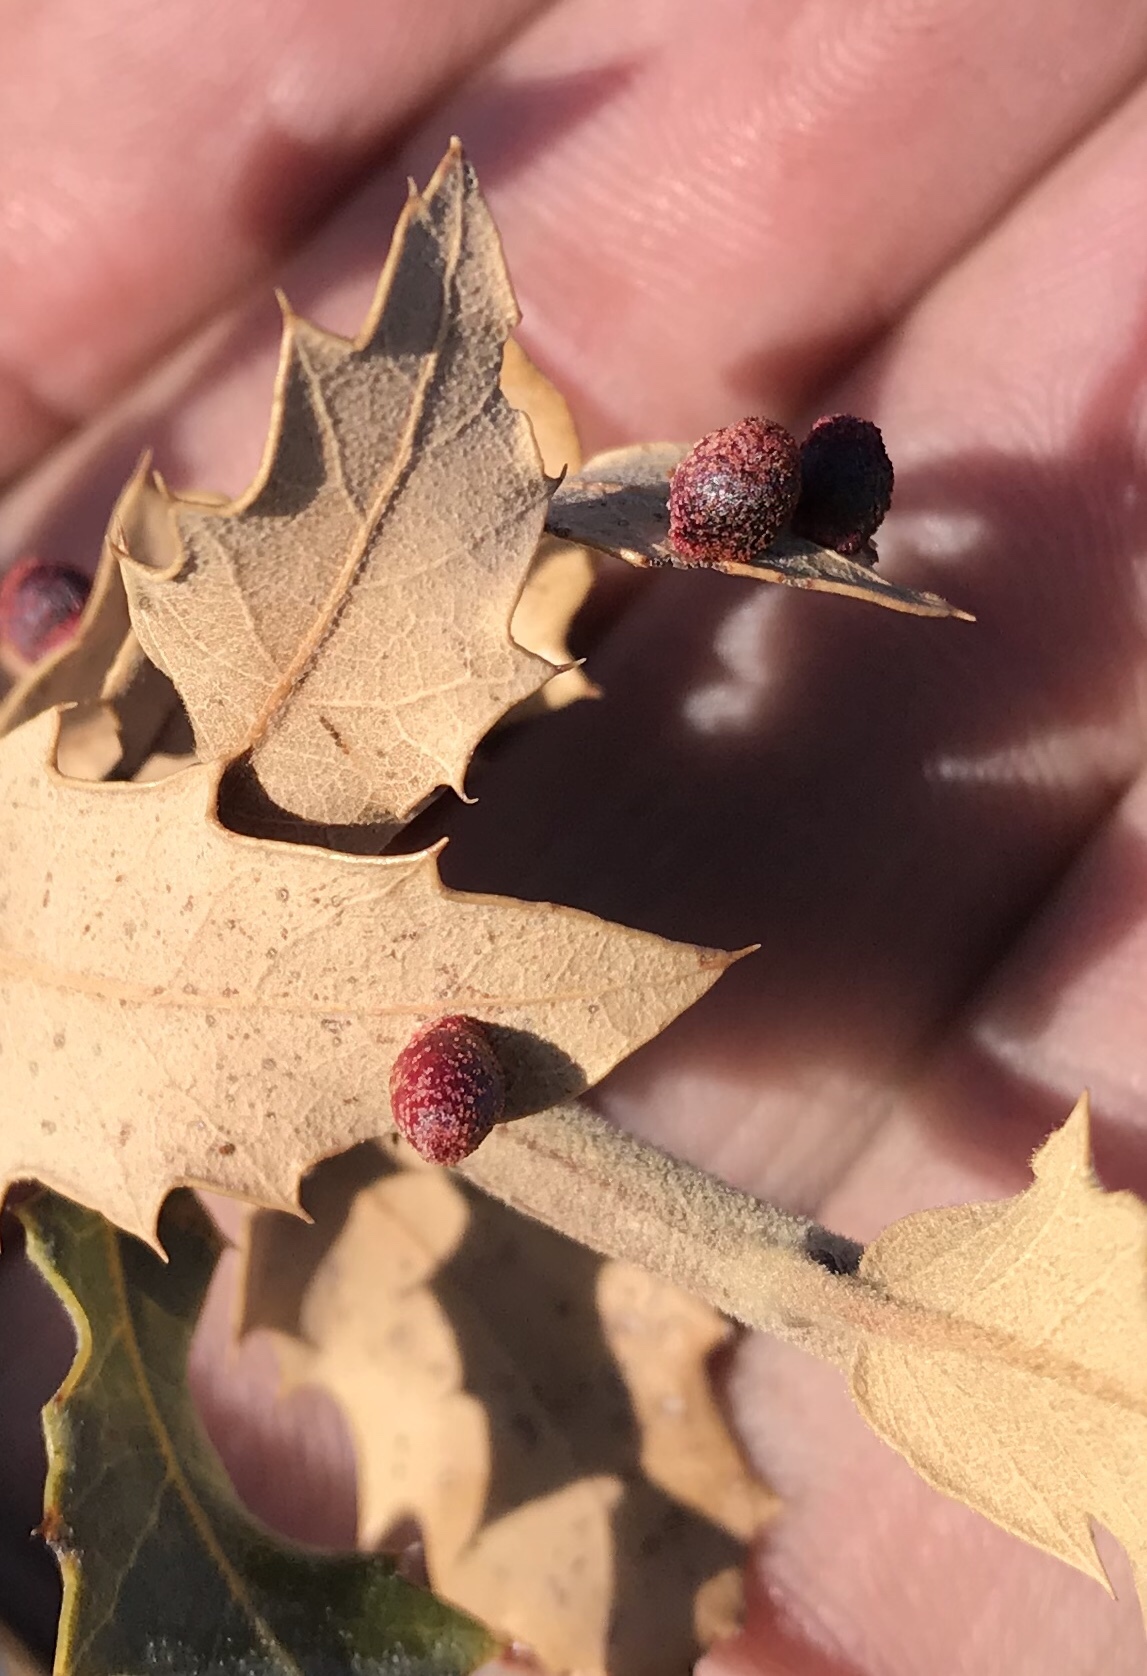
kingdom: Animalia
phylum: Arthropoda
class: Insecta
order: Hymenoptera
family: Cynipidae
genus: Andricus
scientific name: Andricus
